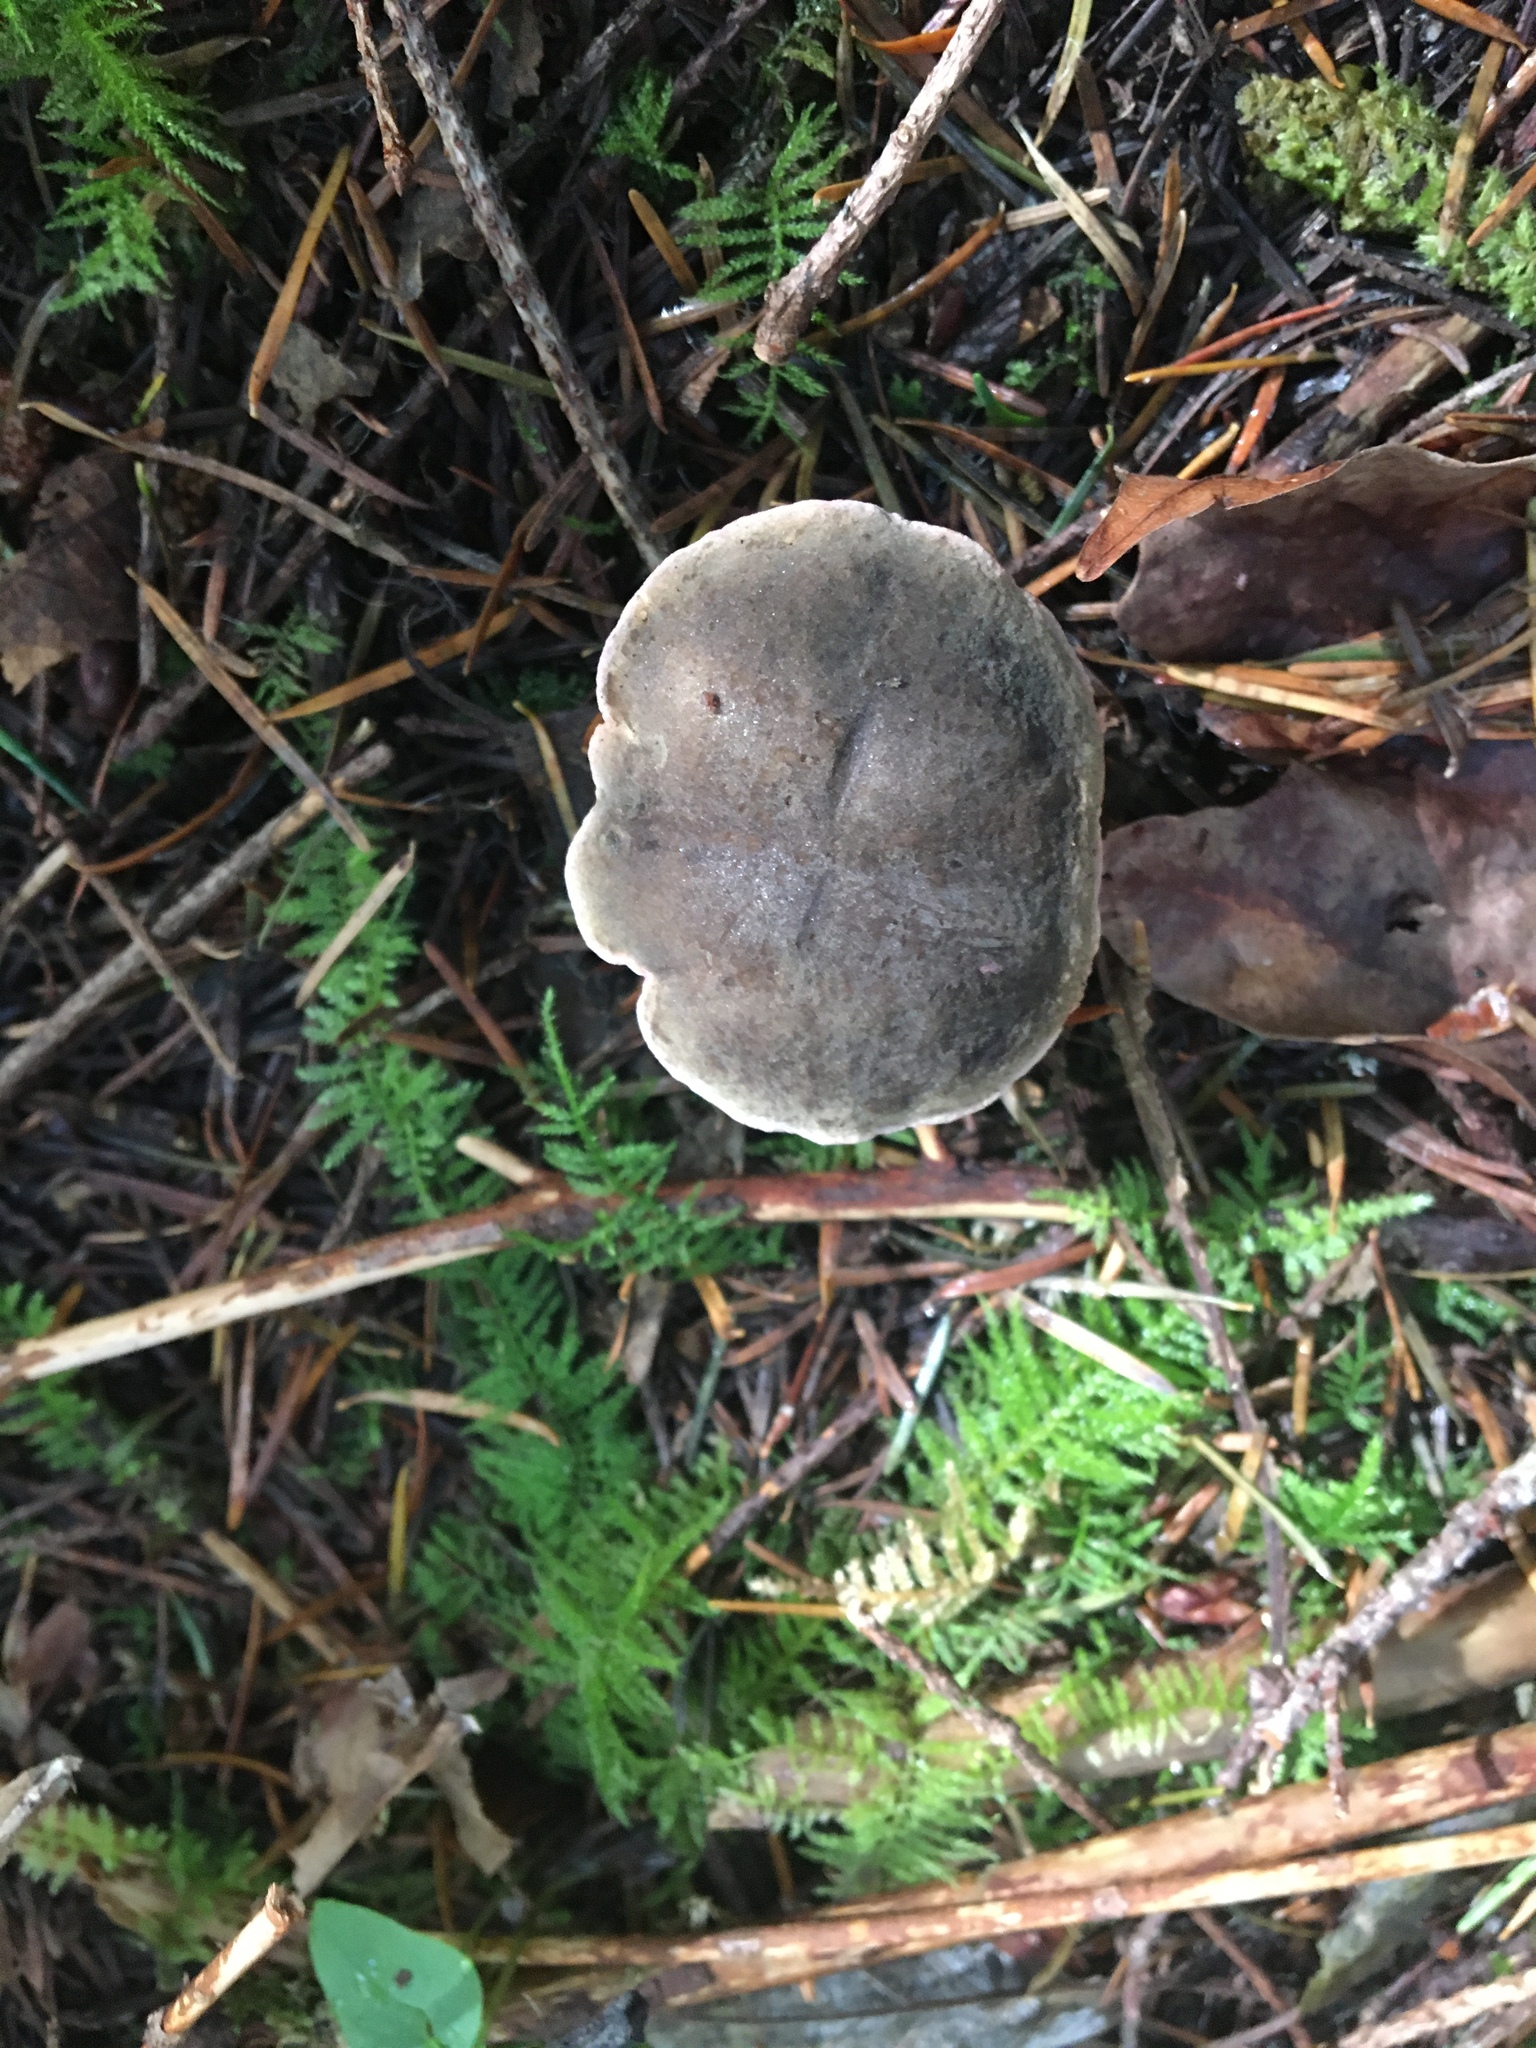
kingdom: Fungi
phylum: Basidiomycota
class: Agaricomycetes
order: Boletales
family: Boletaceae
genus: Xerocomellus
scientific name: Xerocomellus diffractus
